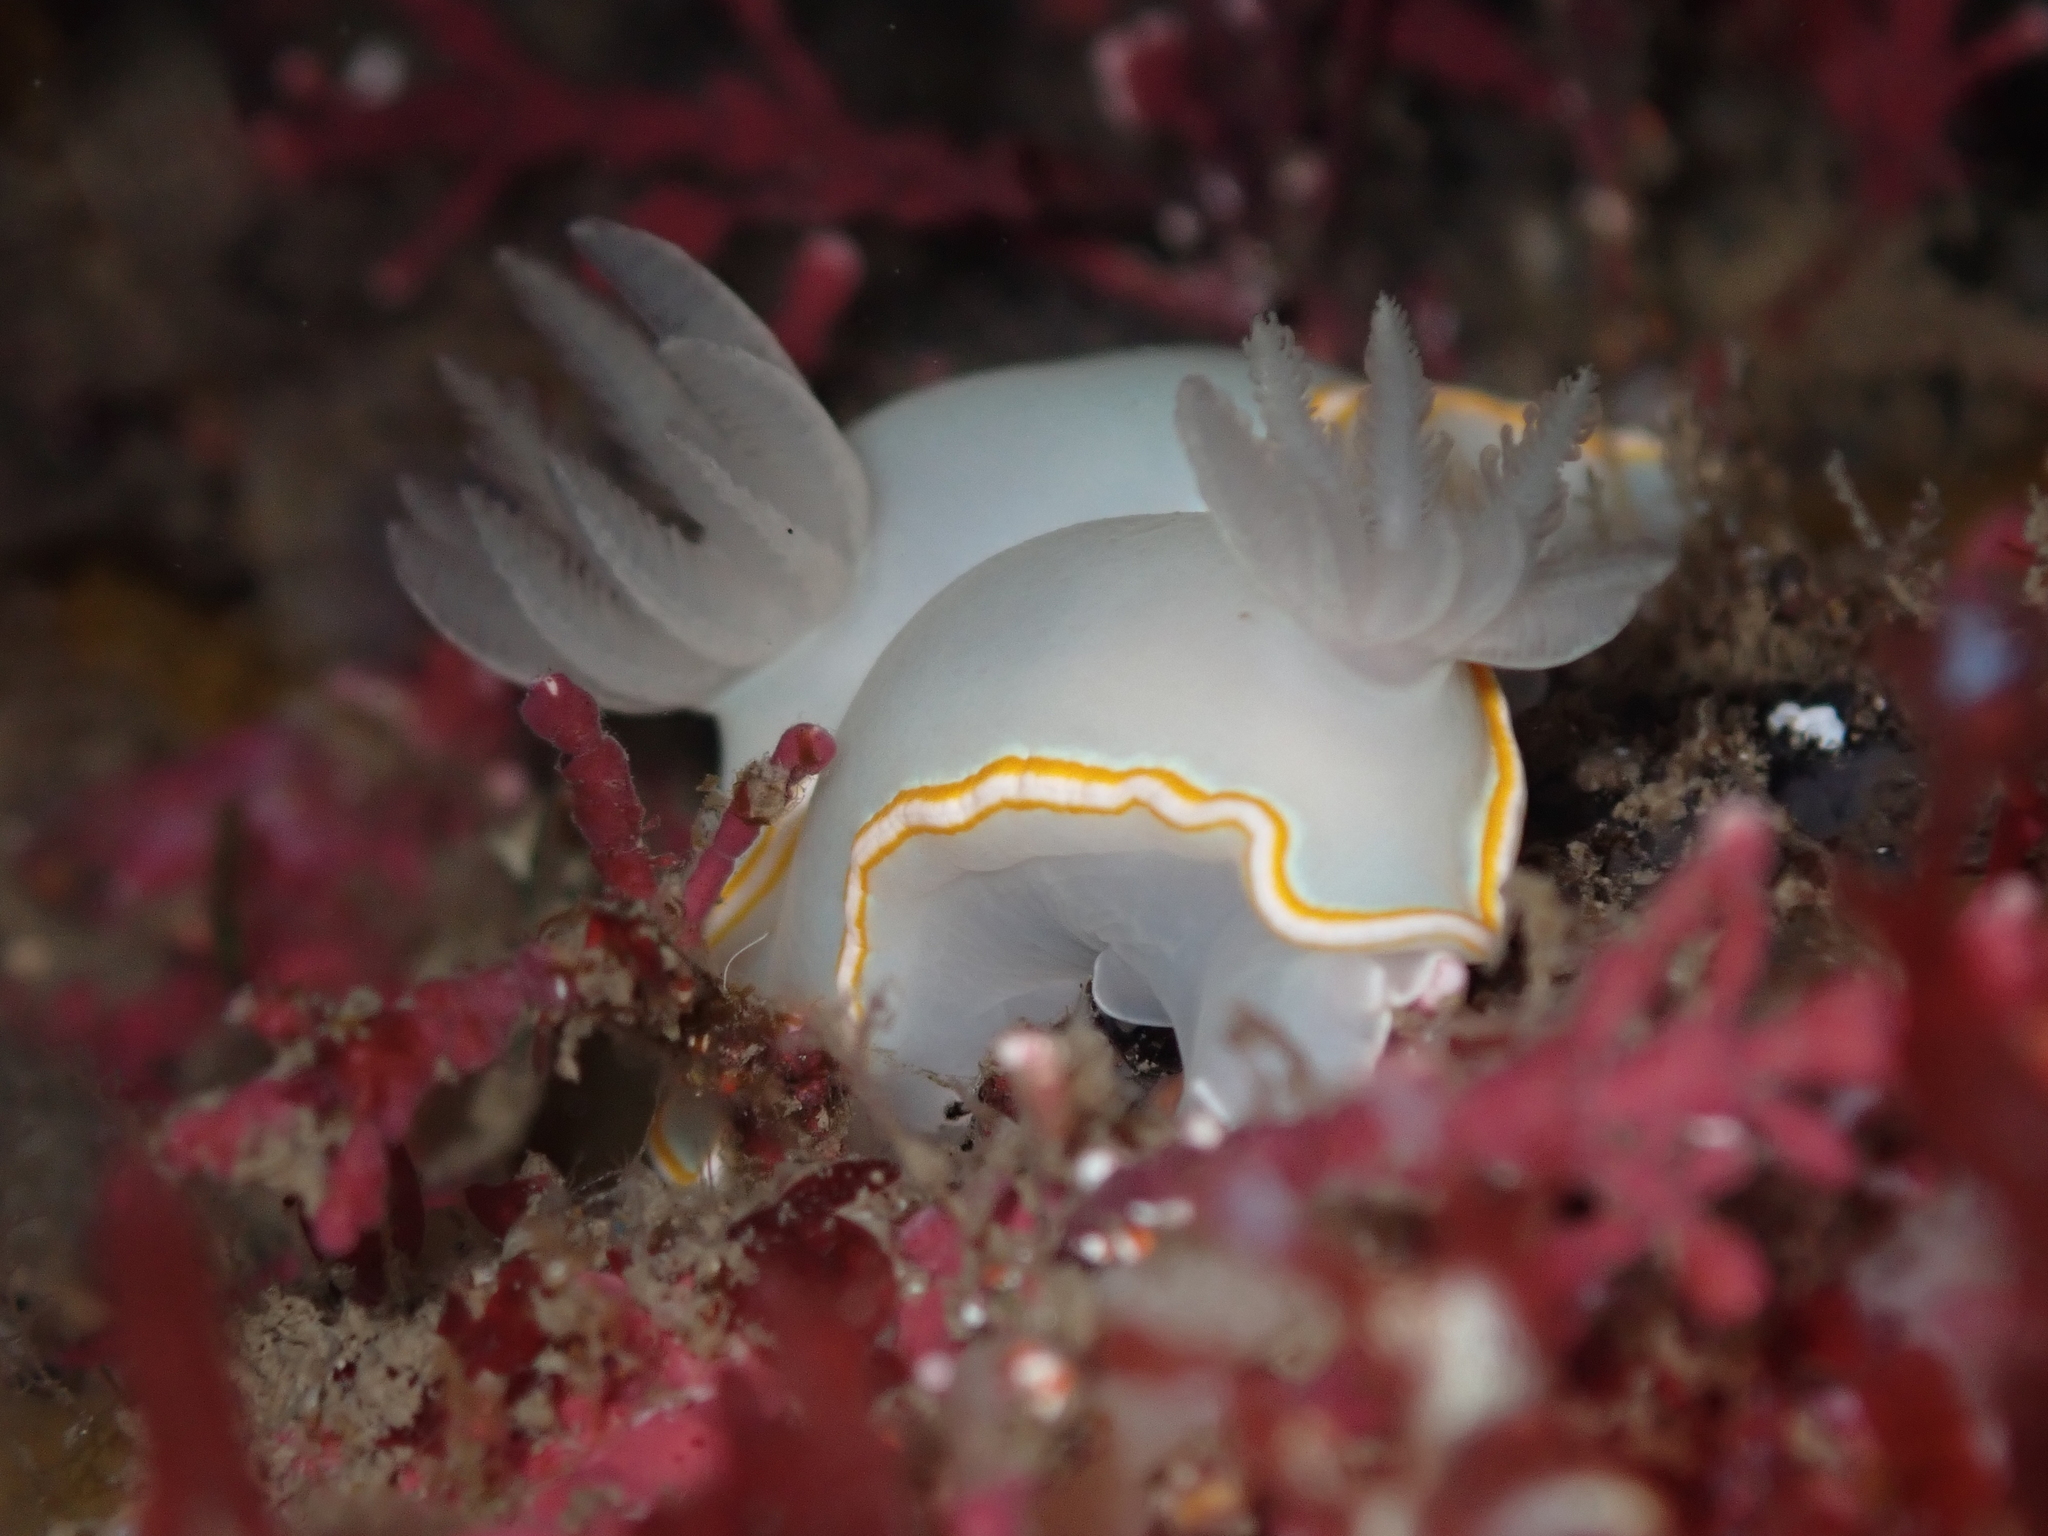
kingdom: Animalia
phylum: Mollusca
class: Gastropoda
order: Nudibranchia
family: Chromodorididae
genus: Goniobranchus
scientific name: Goniobranchus aureomarginatus
